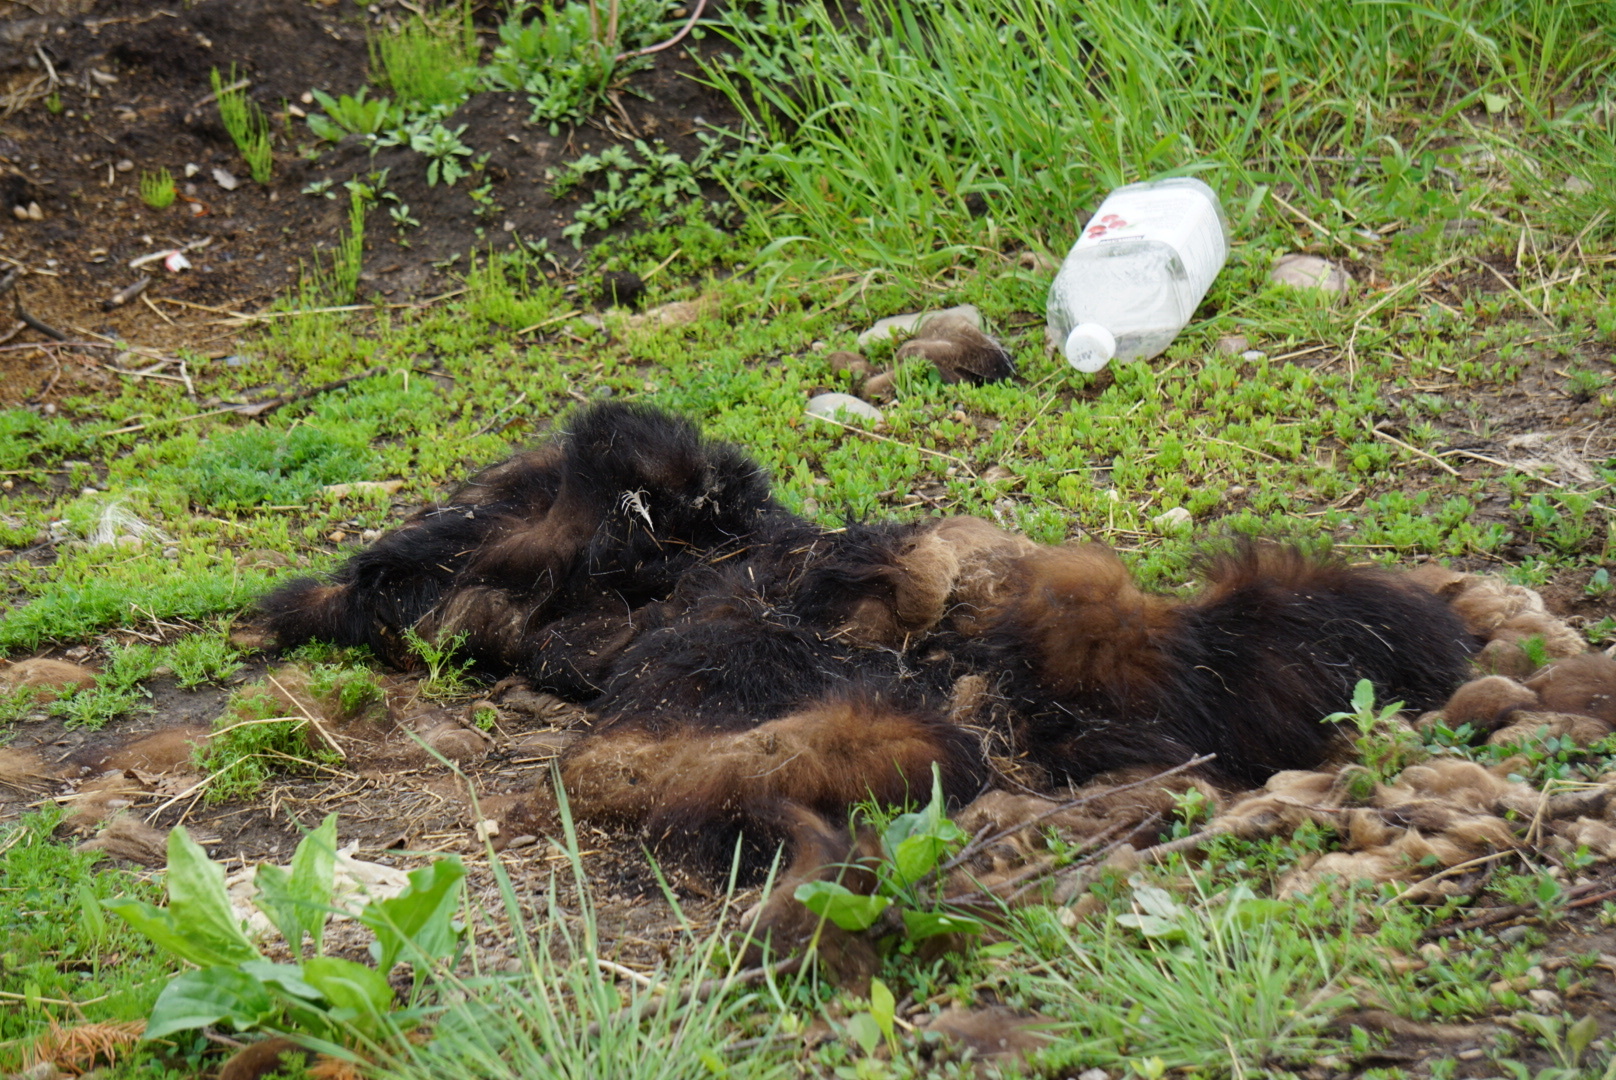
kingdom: Animalia
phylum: Chordata
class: Mammalia
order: Carnivora
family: Ursidae
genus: Ursus
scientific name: Ursus americanus
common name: American black bear
